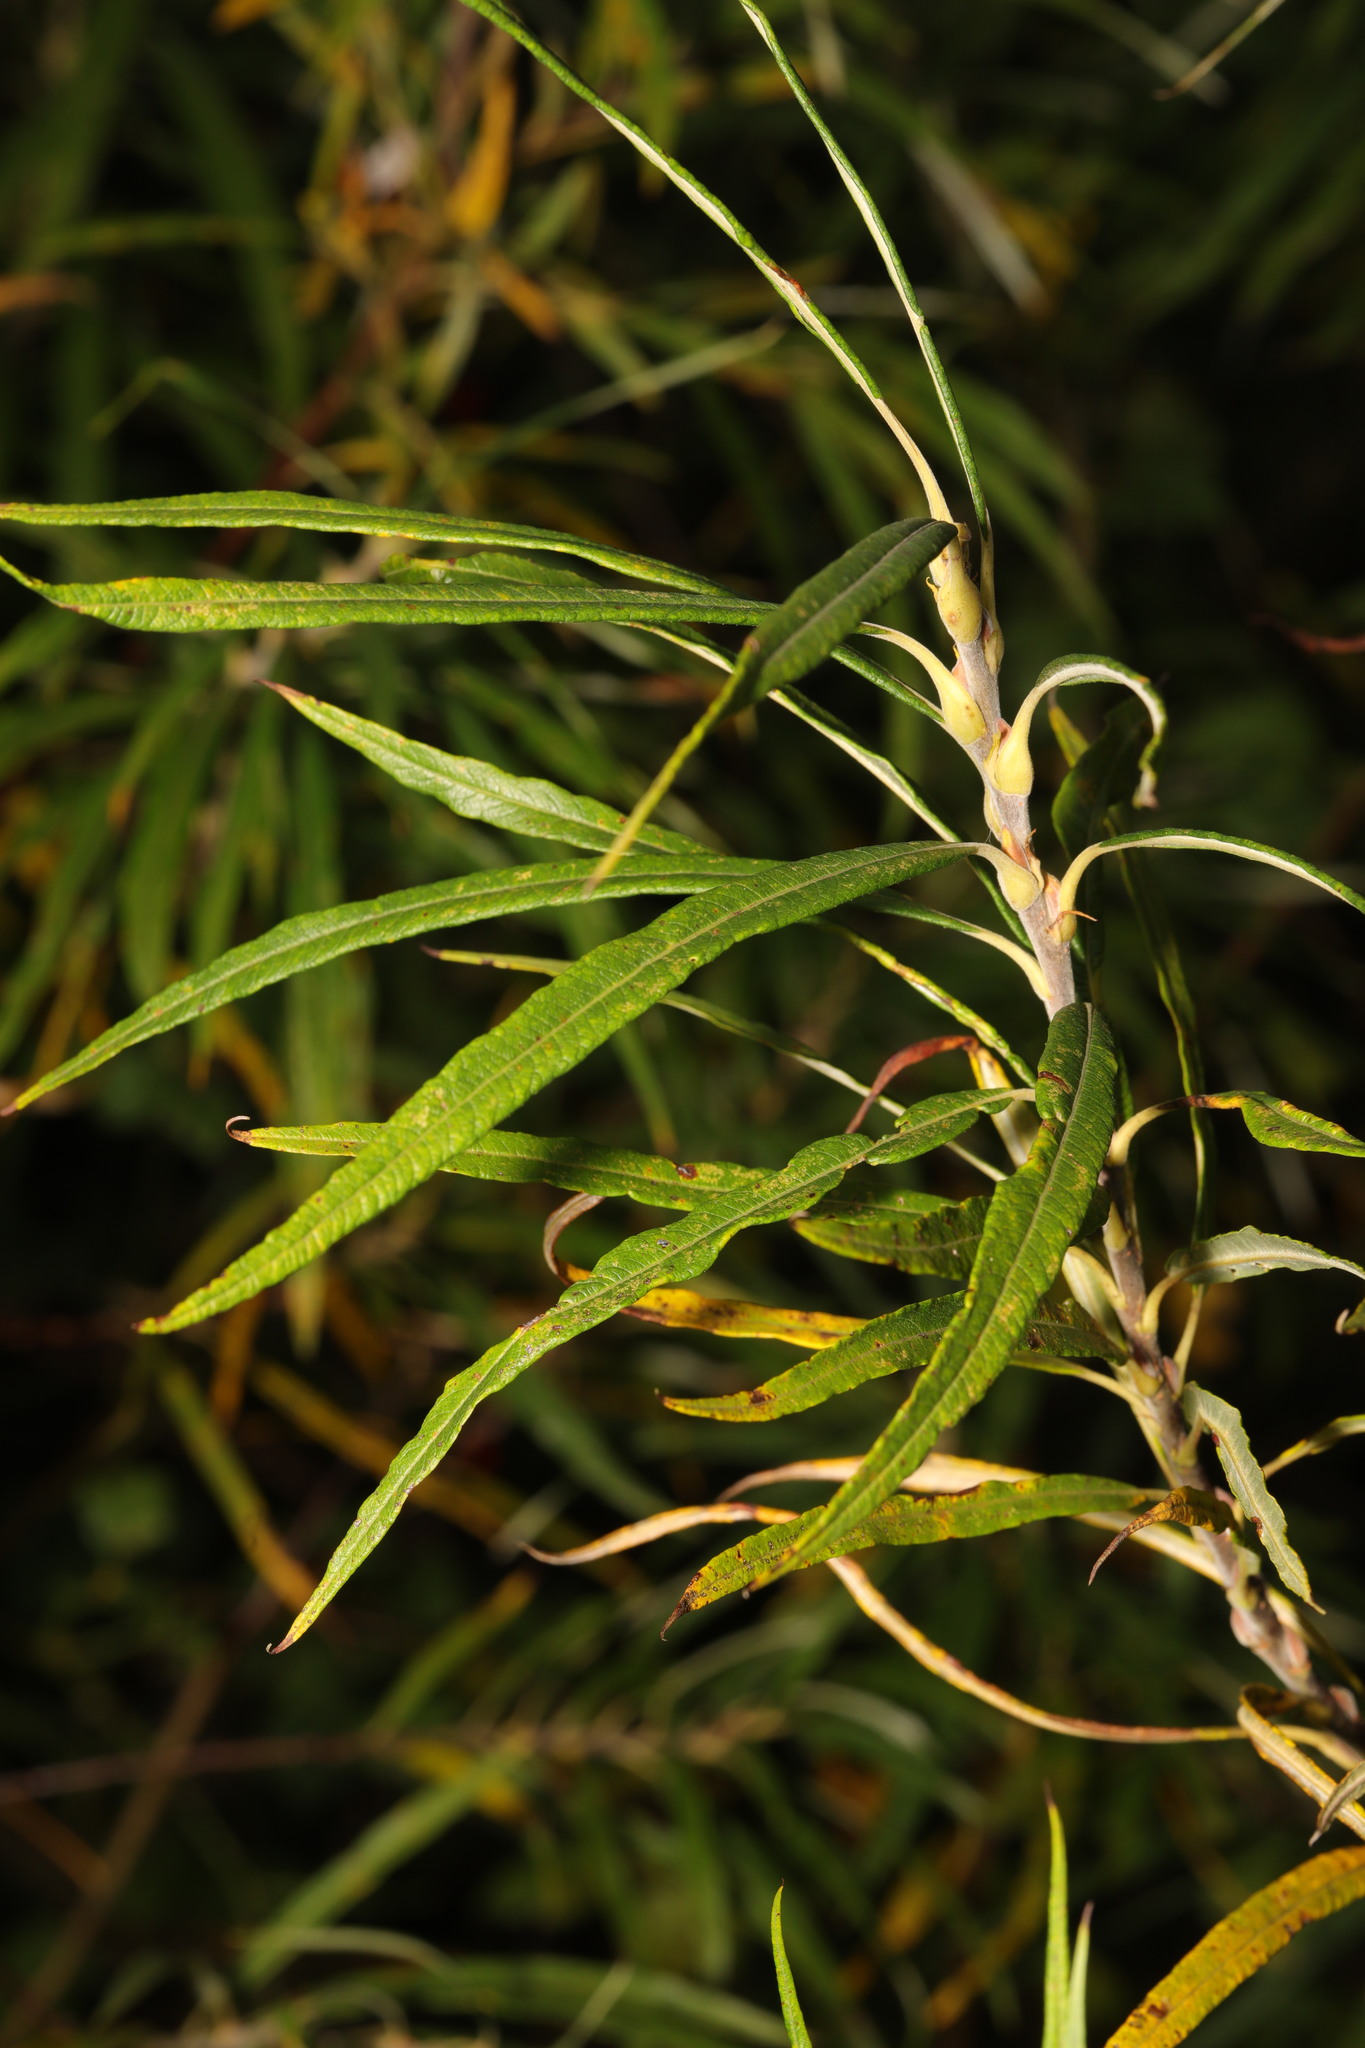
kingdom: Plantae
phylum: Tracheophyta
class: Magnoliopsida
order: Malpighiales
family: Salicaceae
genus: Salix
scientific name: Salix viminalis
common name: Osier
